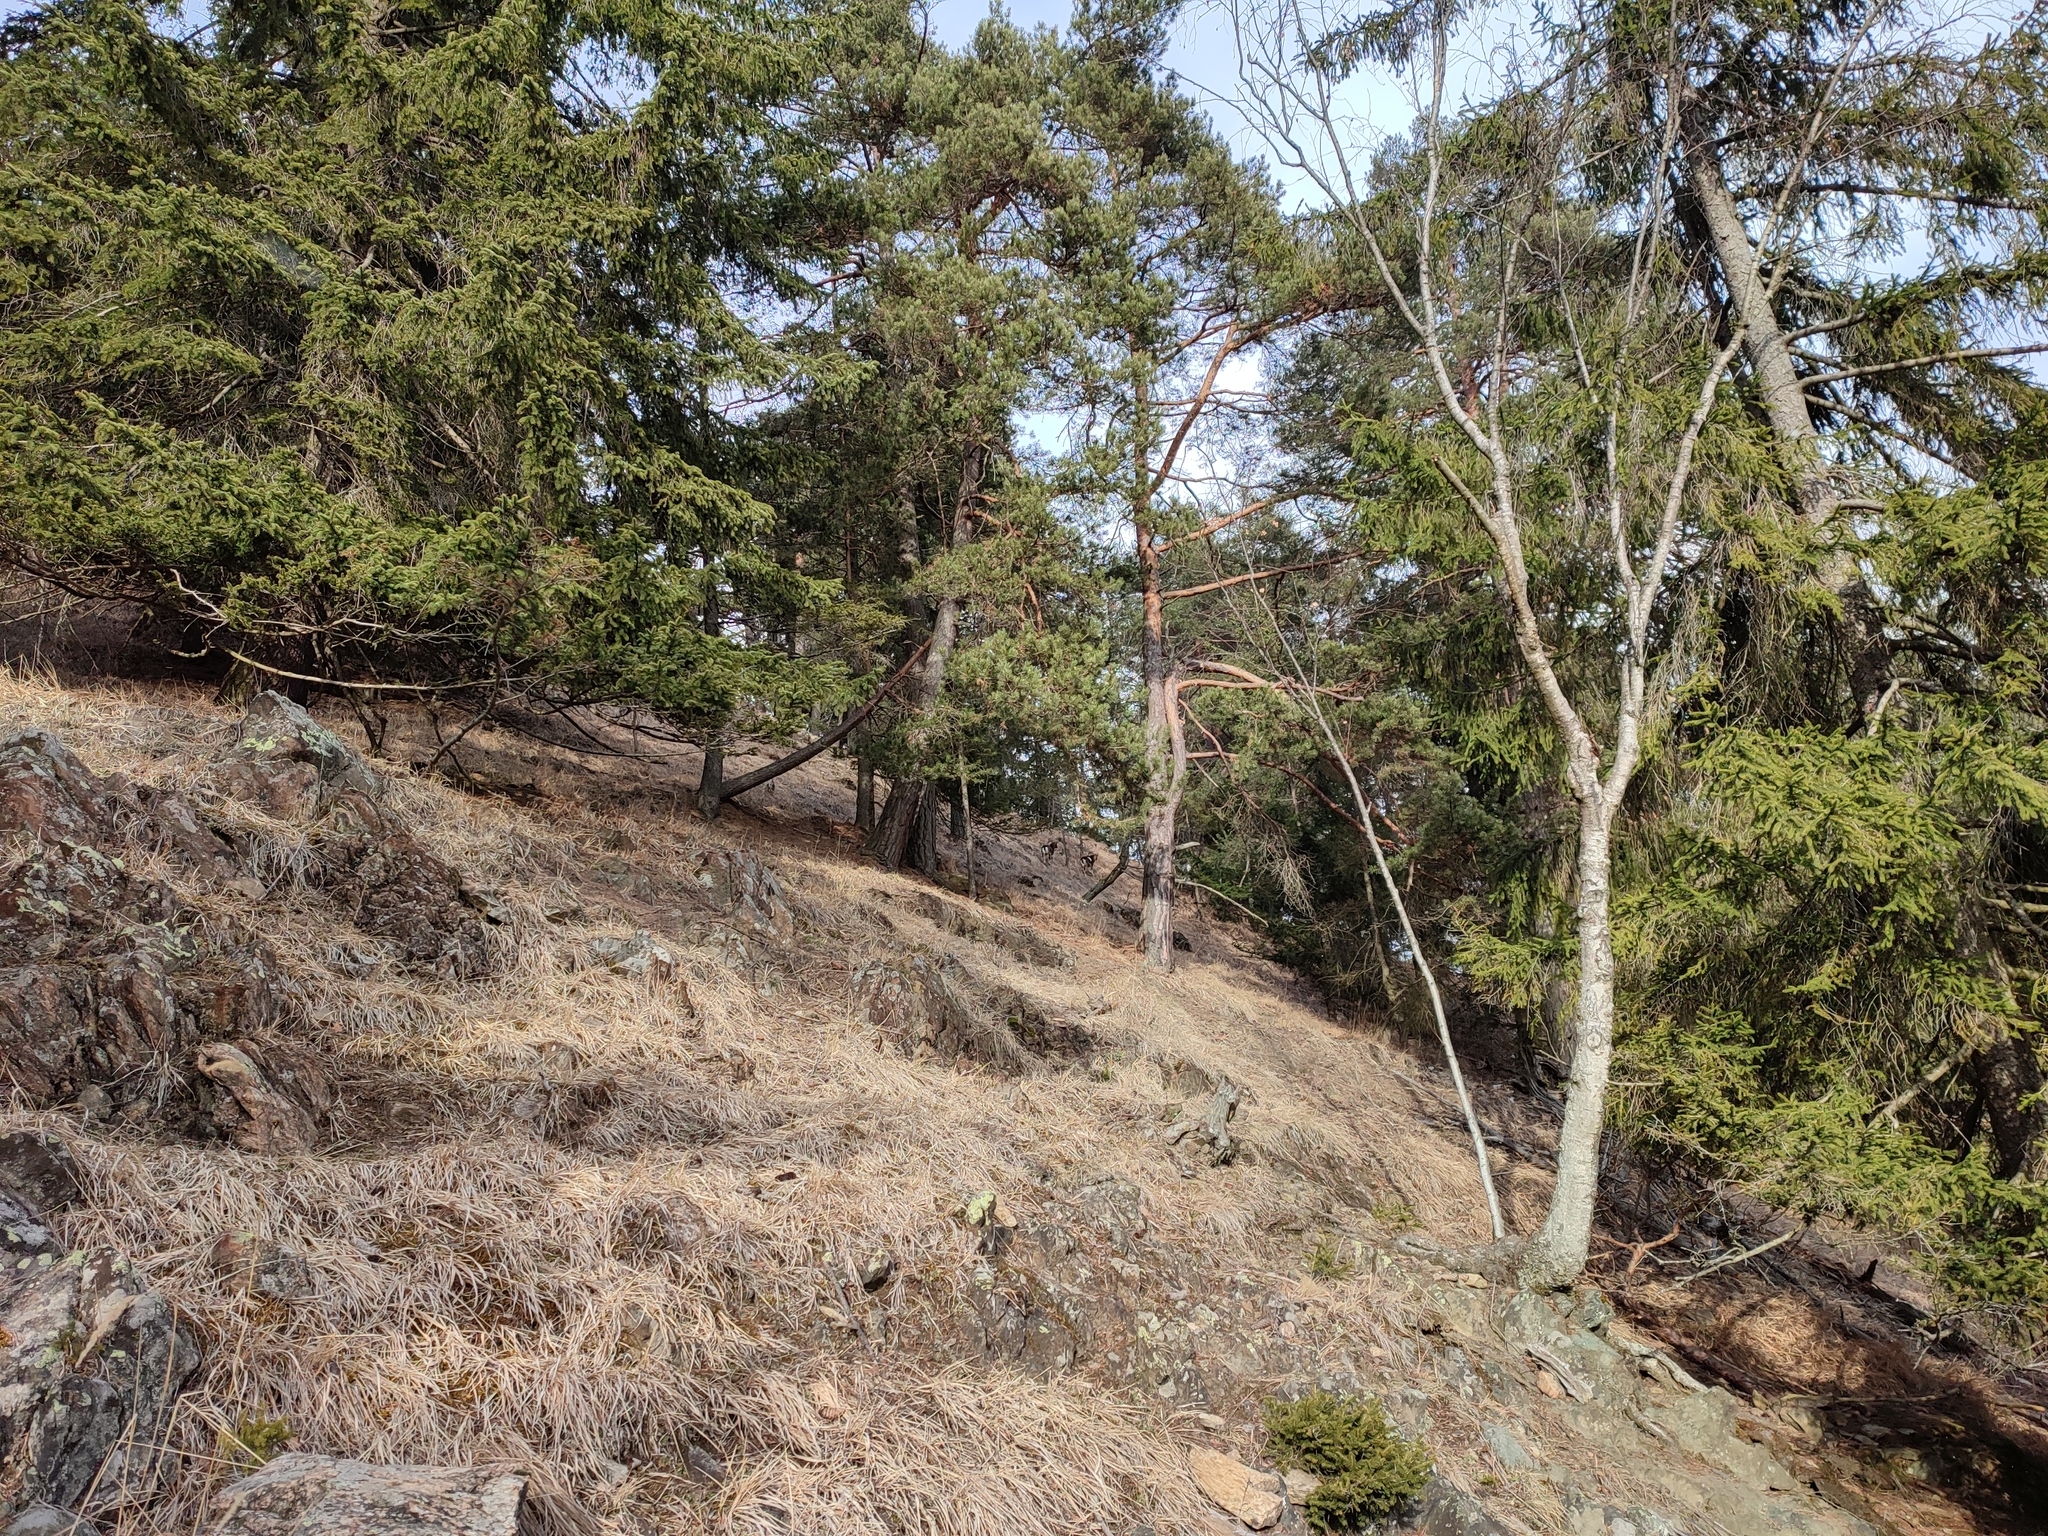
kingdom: Animalia
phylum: Chordata
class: Mammalia
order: Artiodactyla
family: Bovidae
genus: Ovis
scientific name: Ovis aries
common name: Domestic sheep
